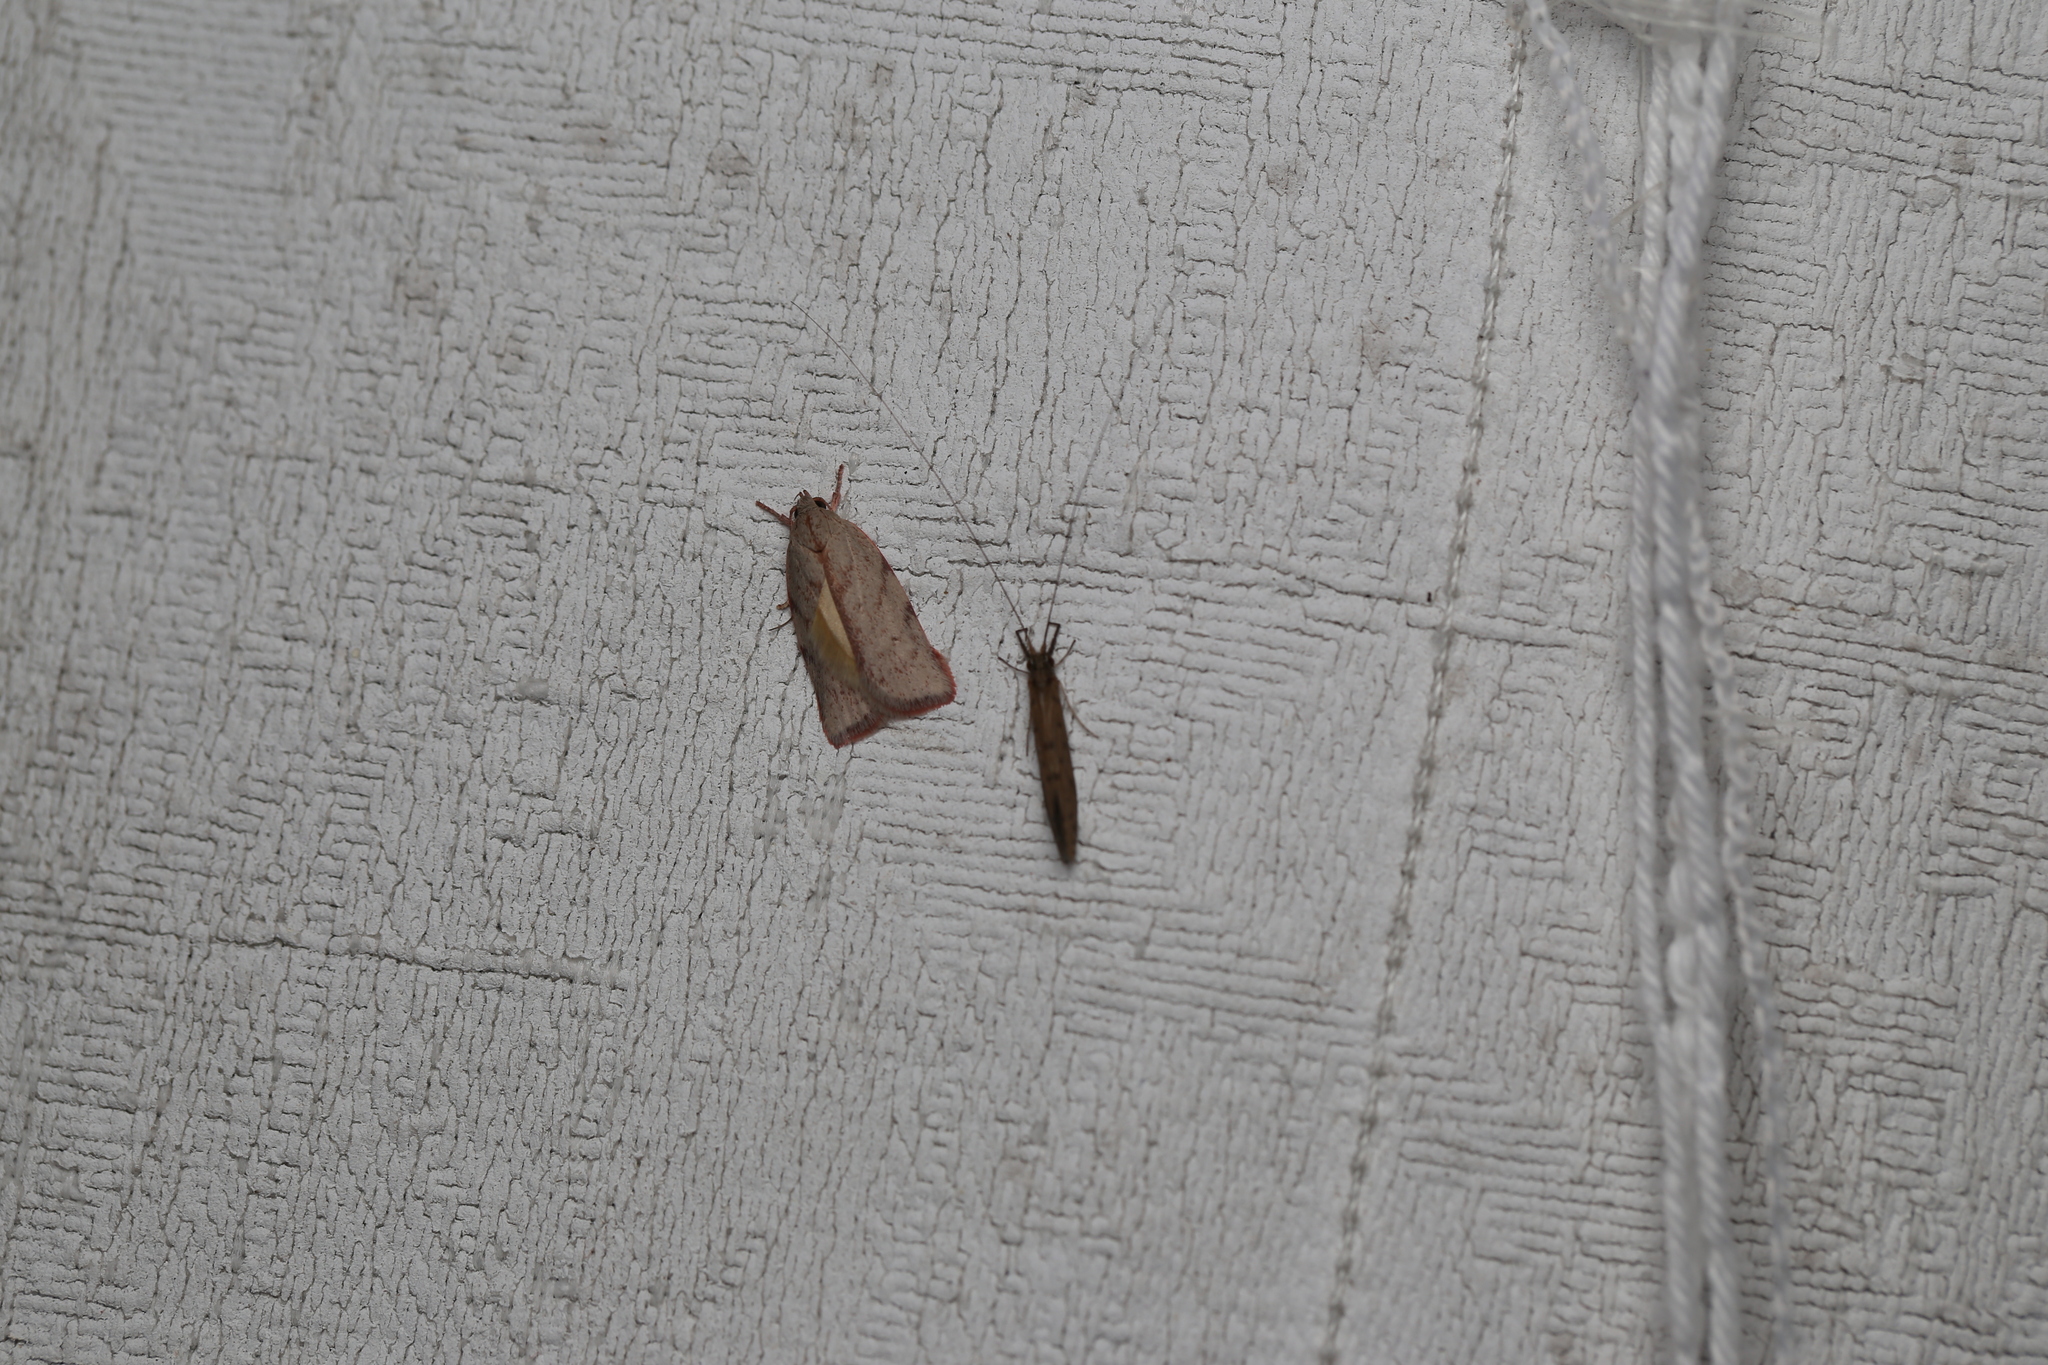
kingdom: Animalia
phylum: Arthropoda
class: Insecta
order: Lepidoptera
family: Oecophoridae
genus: Euchaetis
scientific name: Euchaetis inceptella
